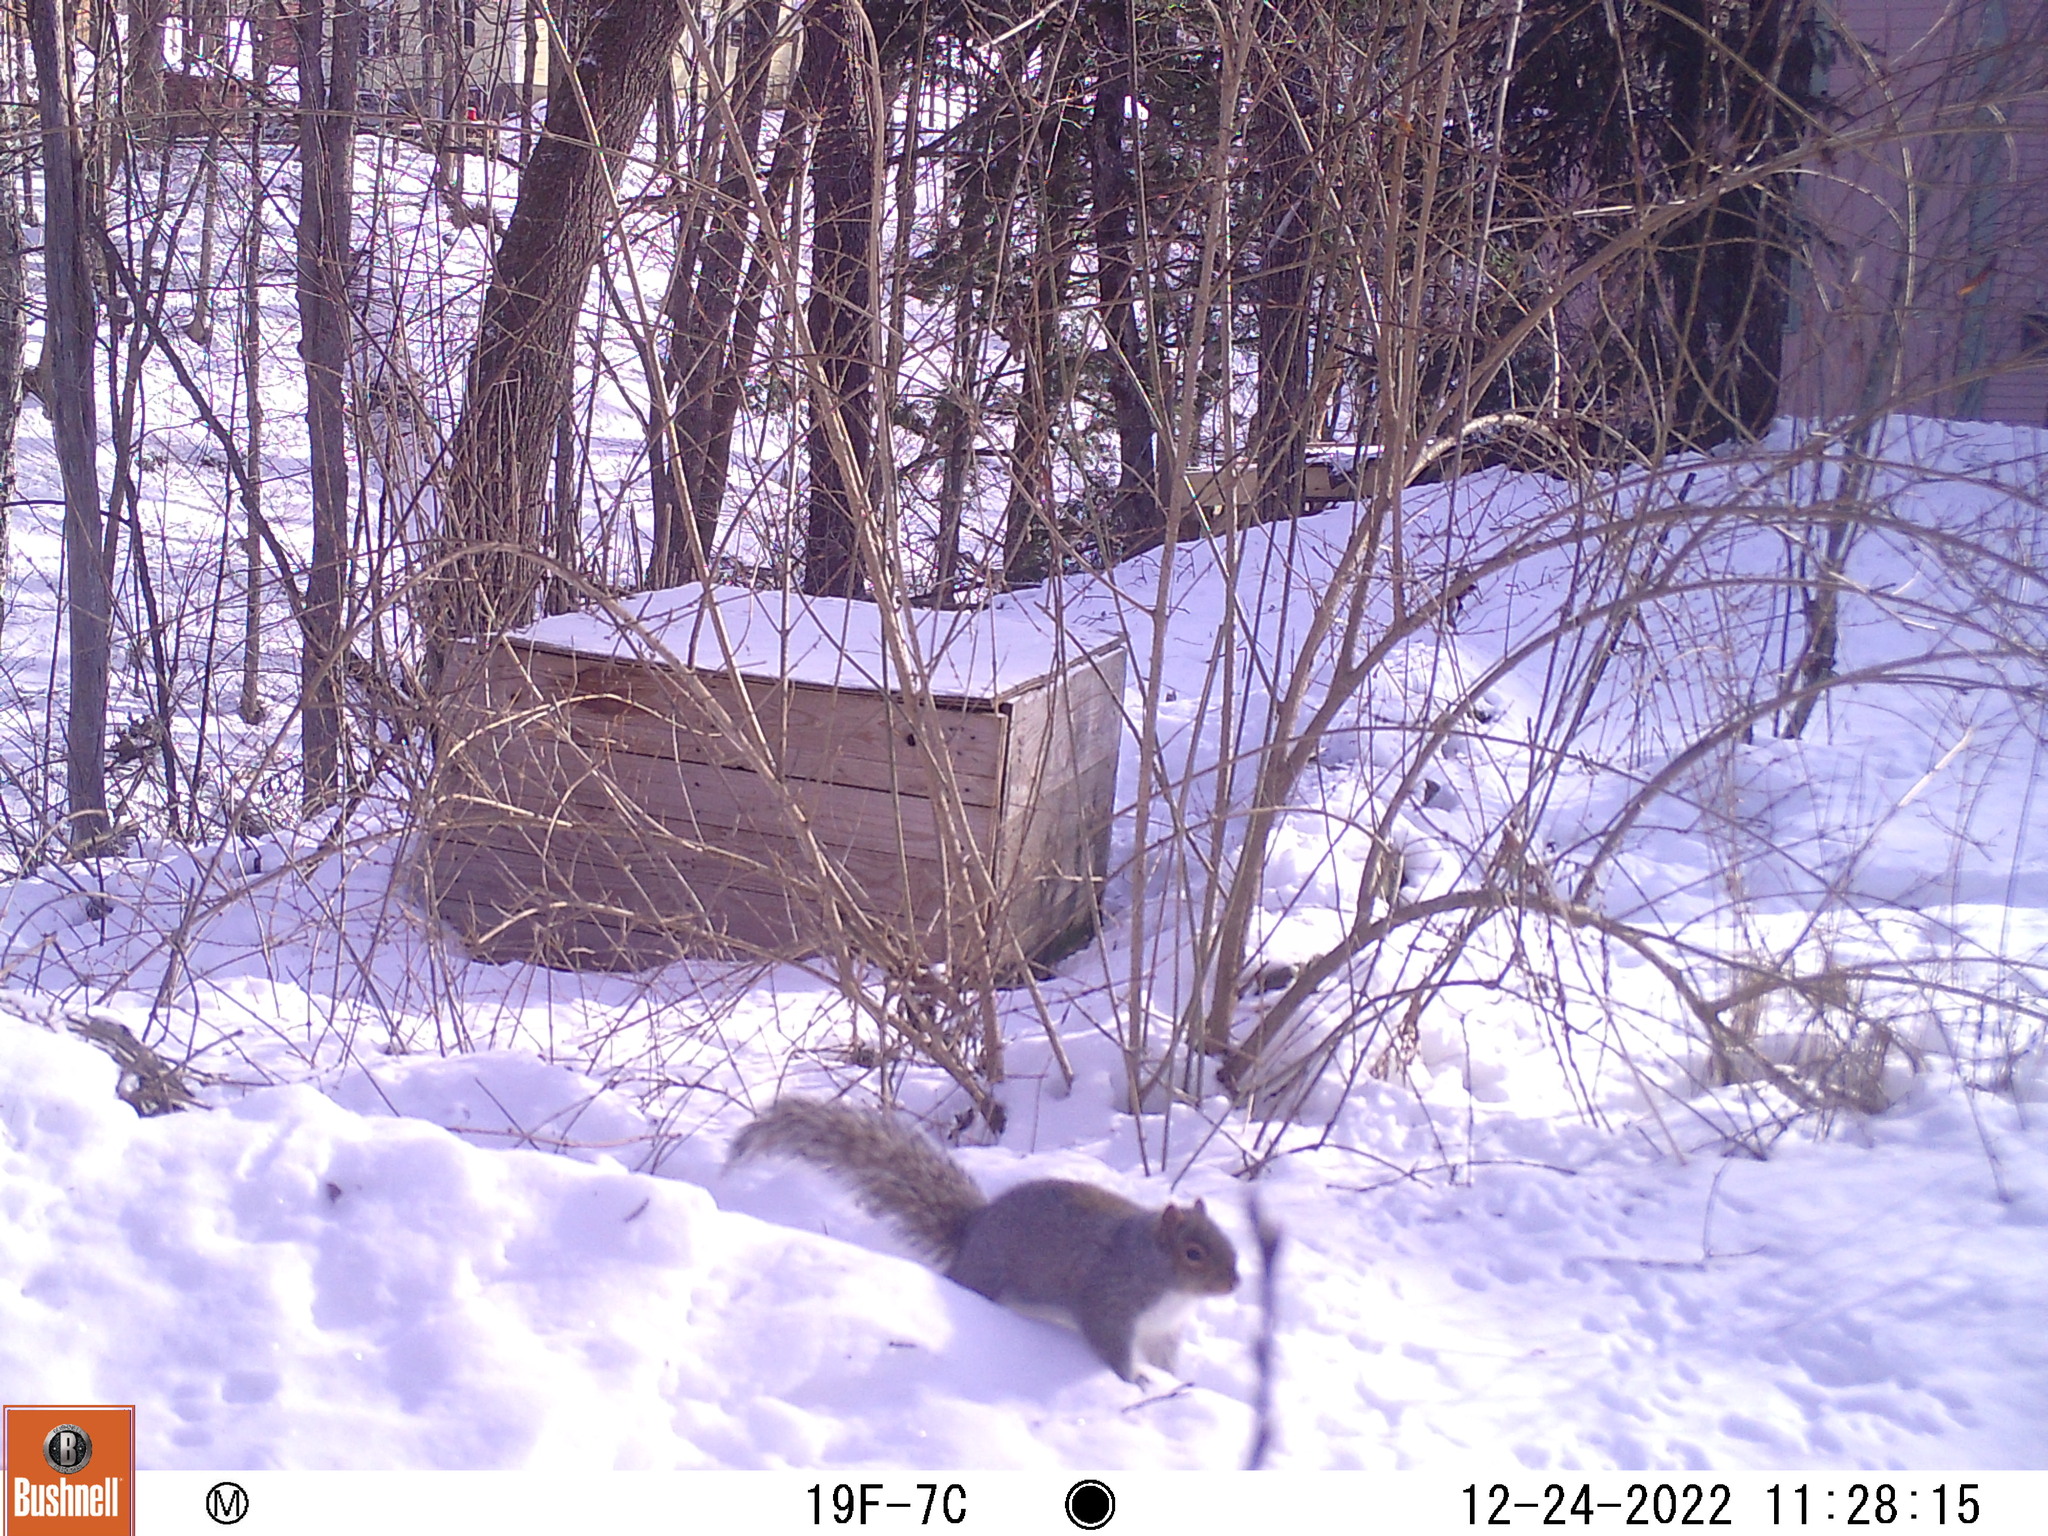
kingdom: Animalia
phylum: Chordata
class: Mammalia
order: Rodentia
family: Sciuridae
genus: Sciurus
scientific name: Sciurus carolinensis
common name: Eastern gray squirrel
